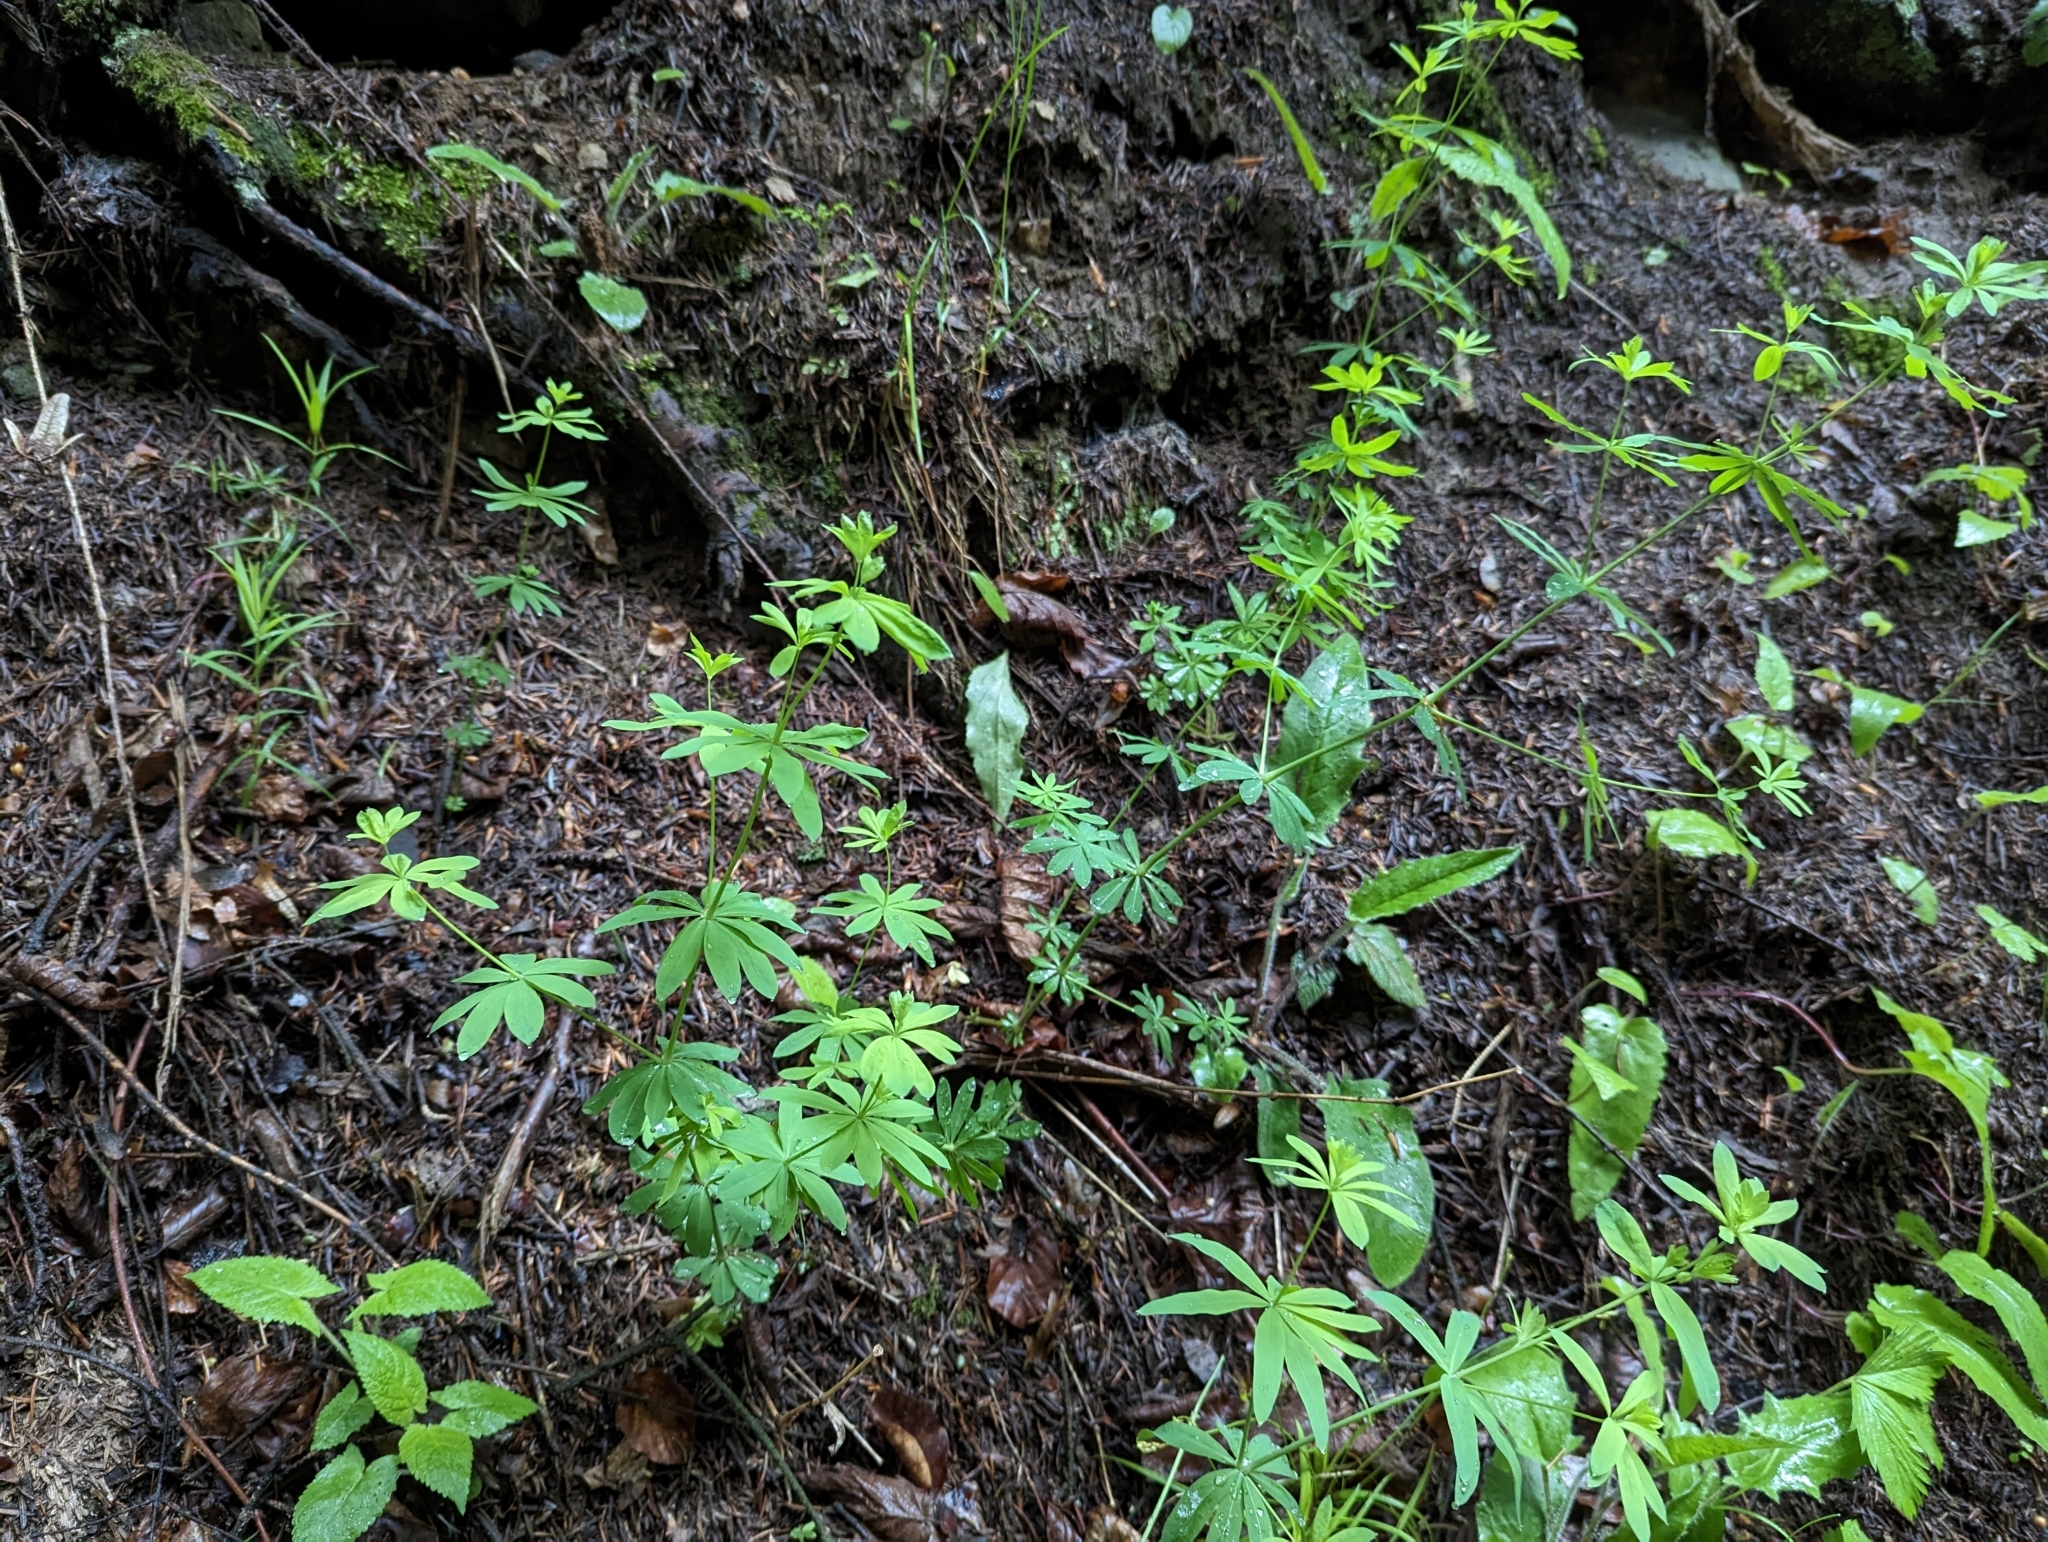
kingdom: Plantae
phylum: Tracheophyta
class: Magnoliopsida
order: Gentianales
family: Rubiaceae
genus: Galium
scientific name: Galium sylvaticum
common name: Wood bedstraw
